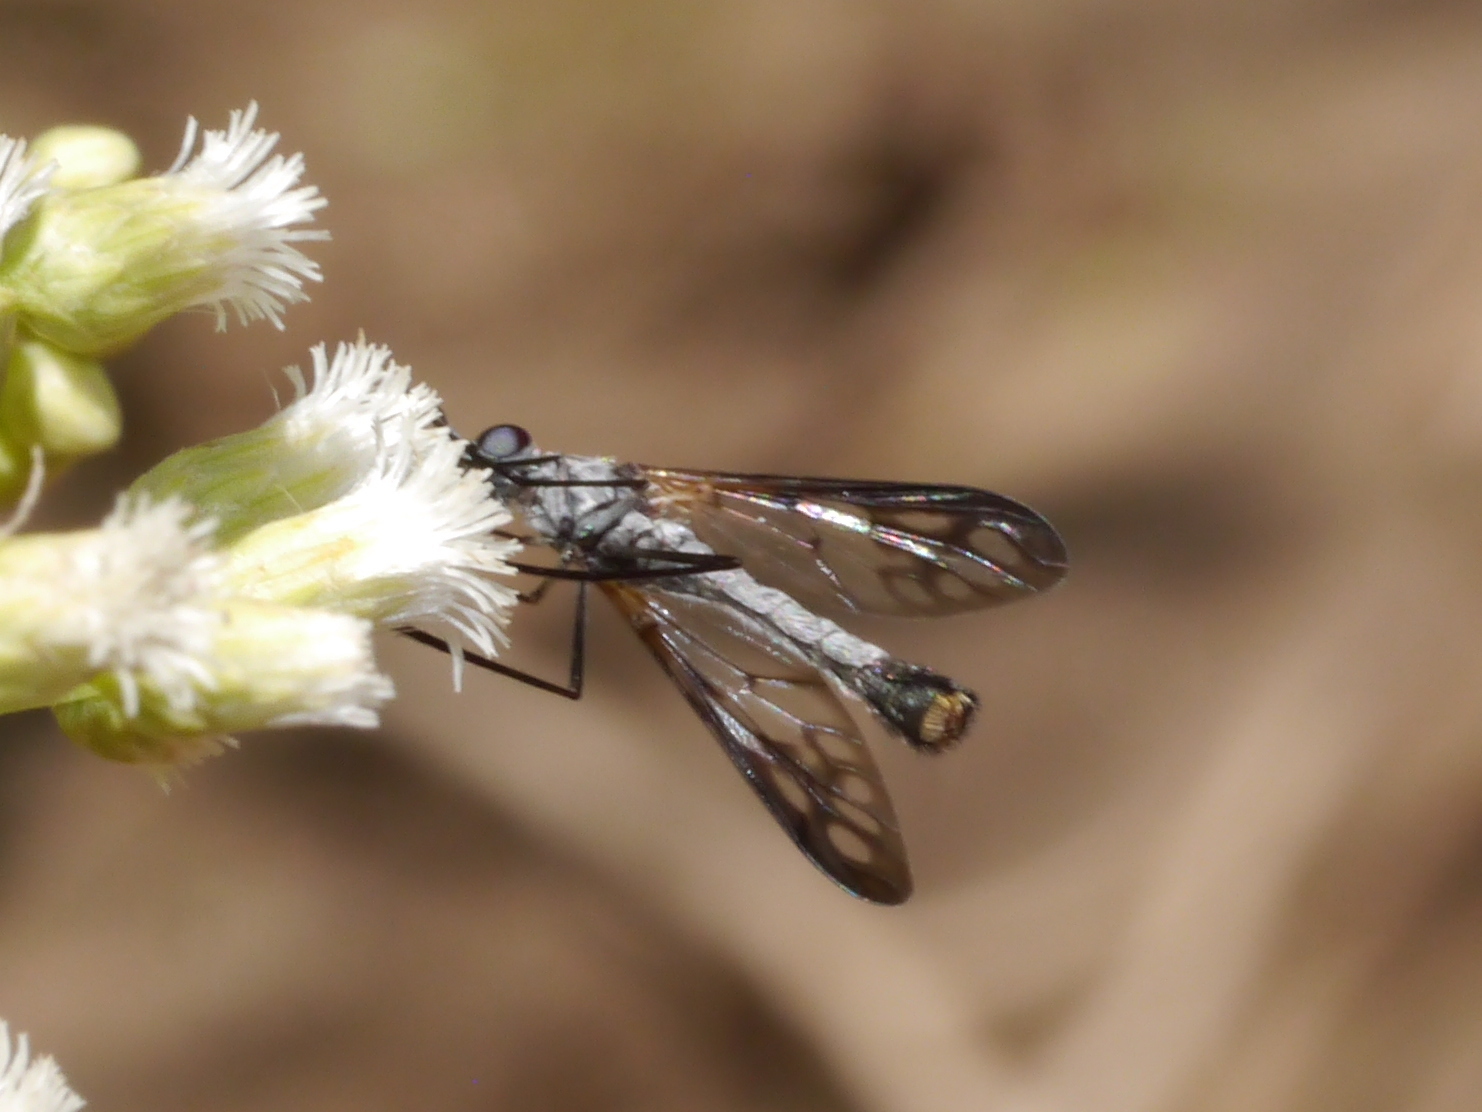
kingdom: Animalia
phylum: Arthropoda
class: Insecta
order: Diptera
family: Bombyliidae
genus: Thevenetimyia
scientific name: Thevenetimyia maculipennis
